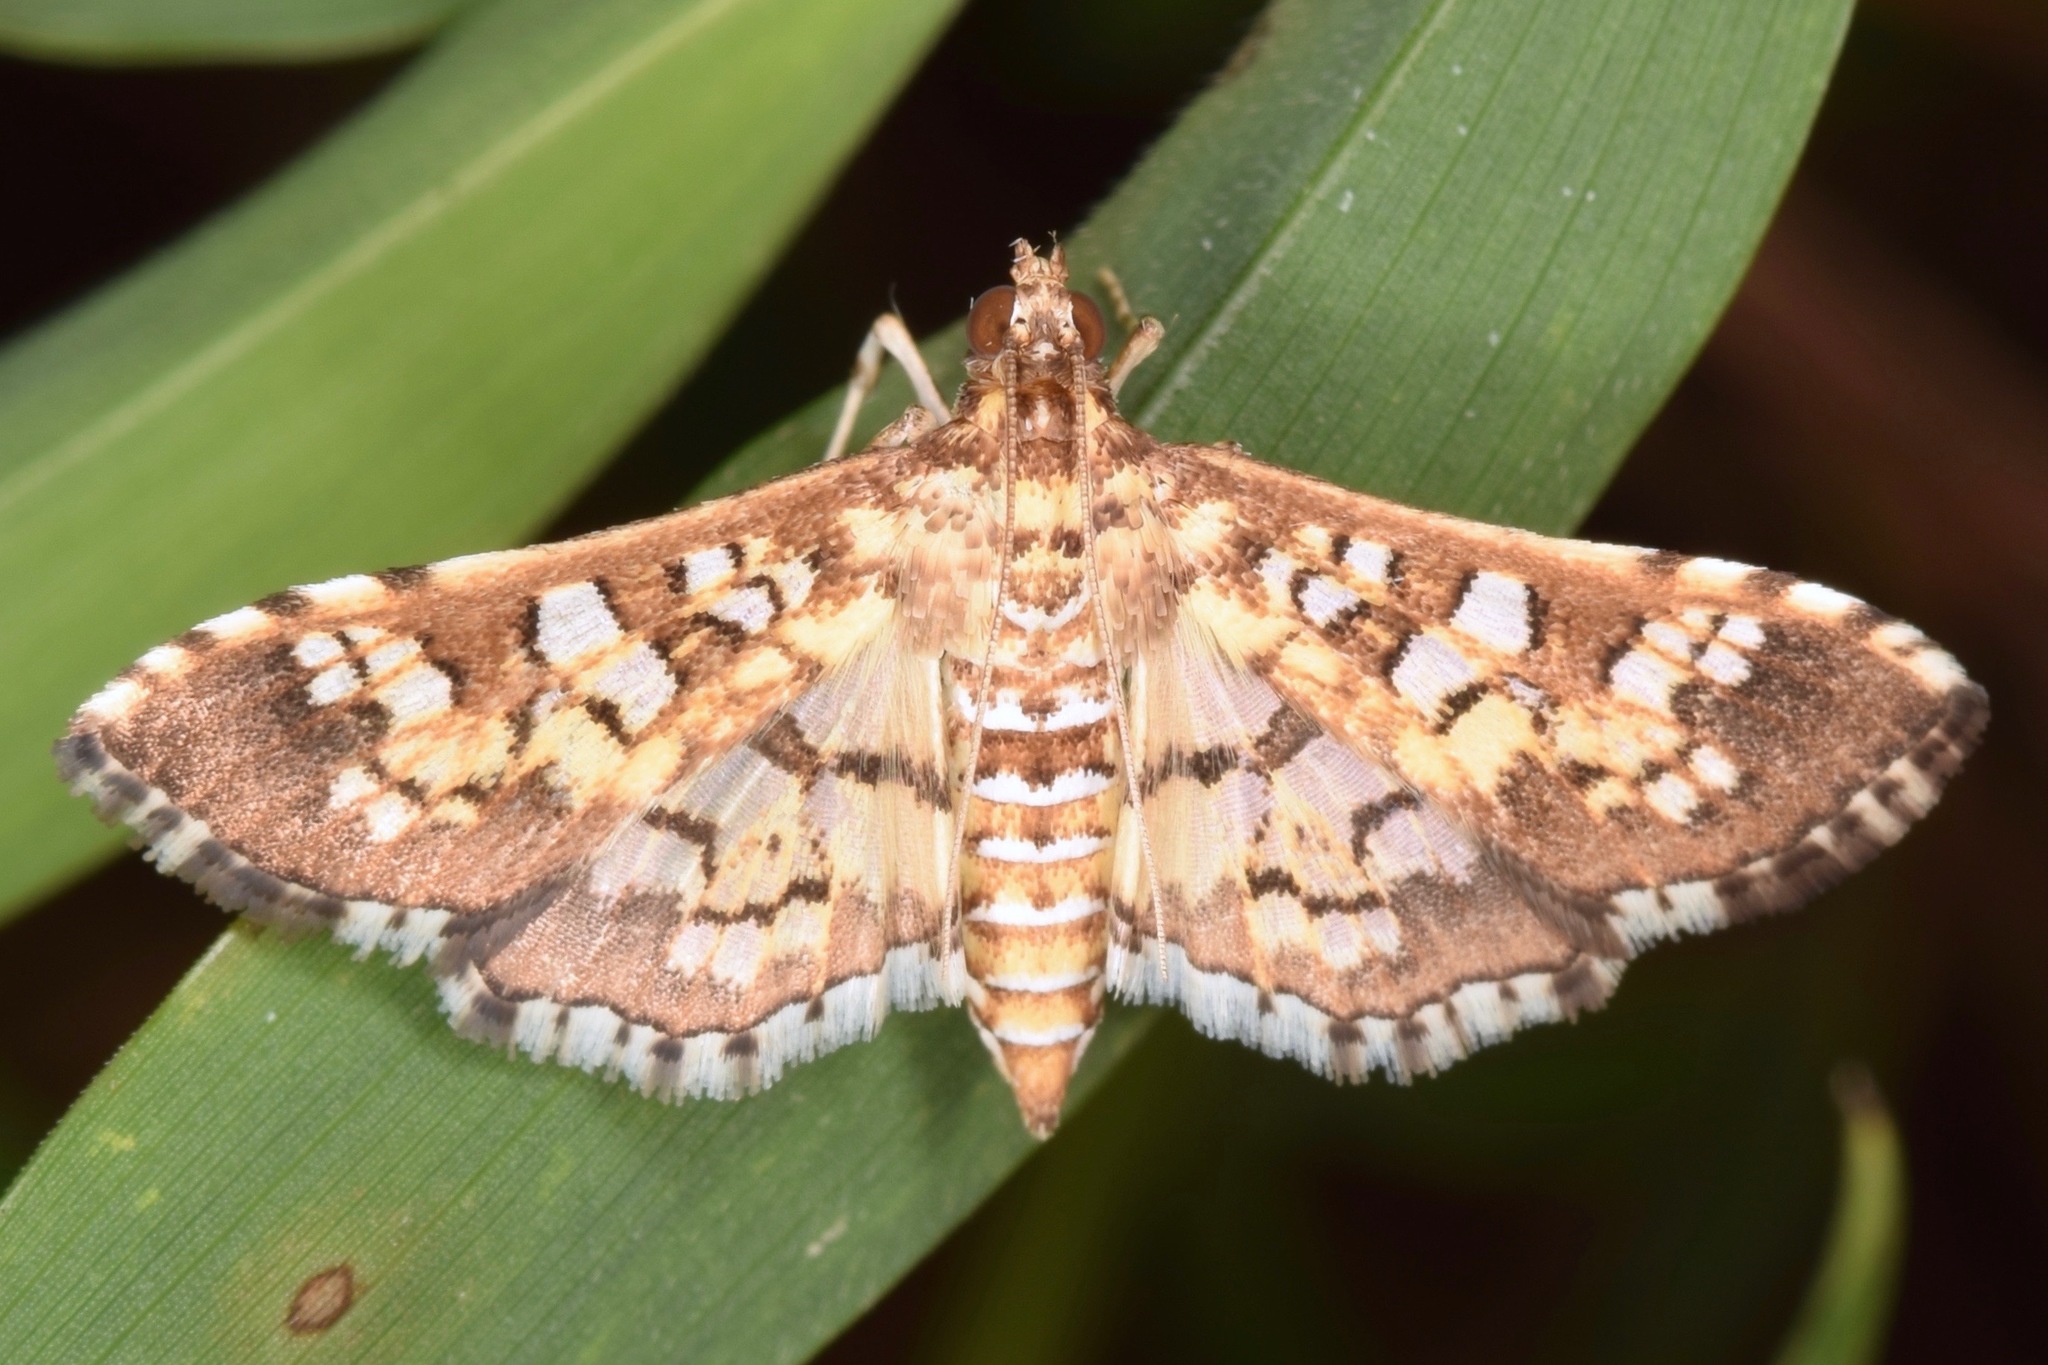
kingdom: Animalia
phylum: Arthropoda
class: Insecta
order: Lepidoptera
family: Crambidae
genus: Samea
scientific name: Samea ecclesialis
